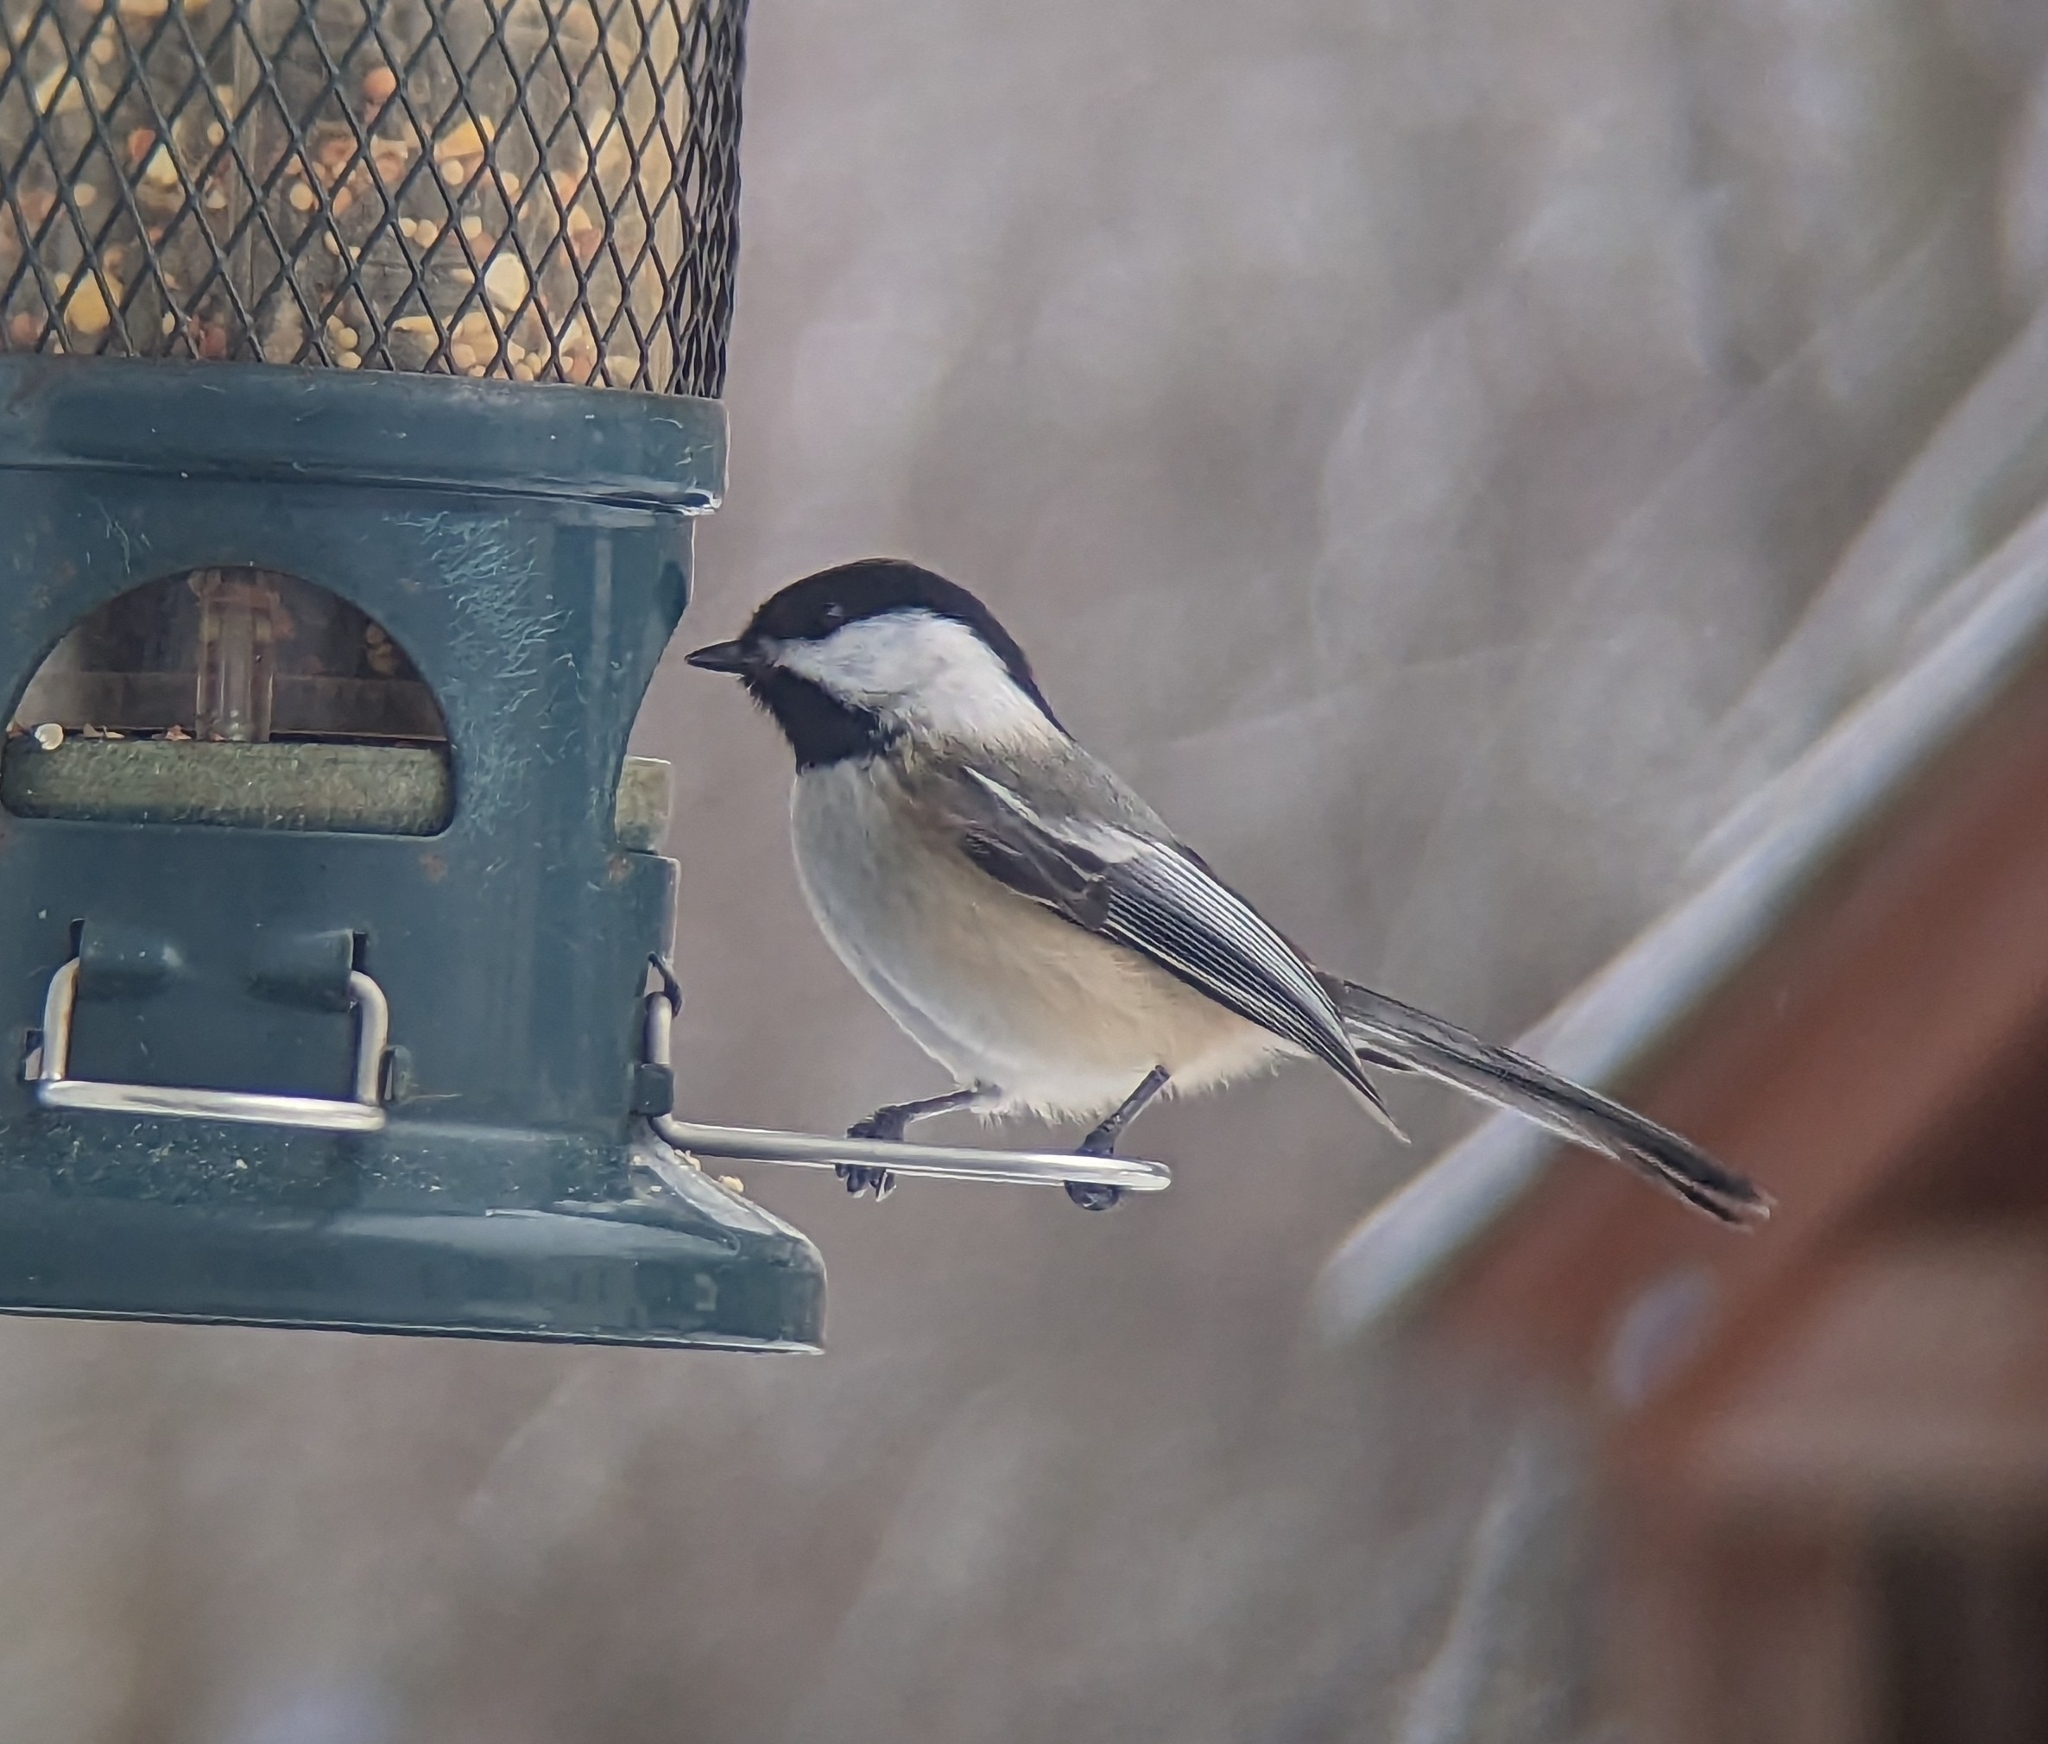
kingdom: Animalia
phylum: Chordata
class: Aves
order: Passeriformes
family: Paridae
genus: Poecile
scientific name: Poecile atricapillus
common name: Black-capped chickadee
